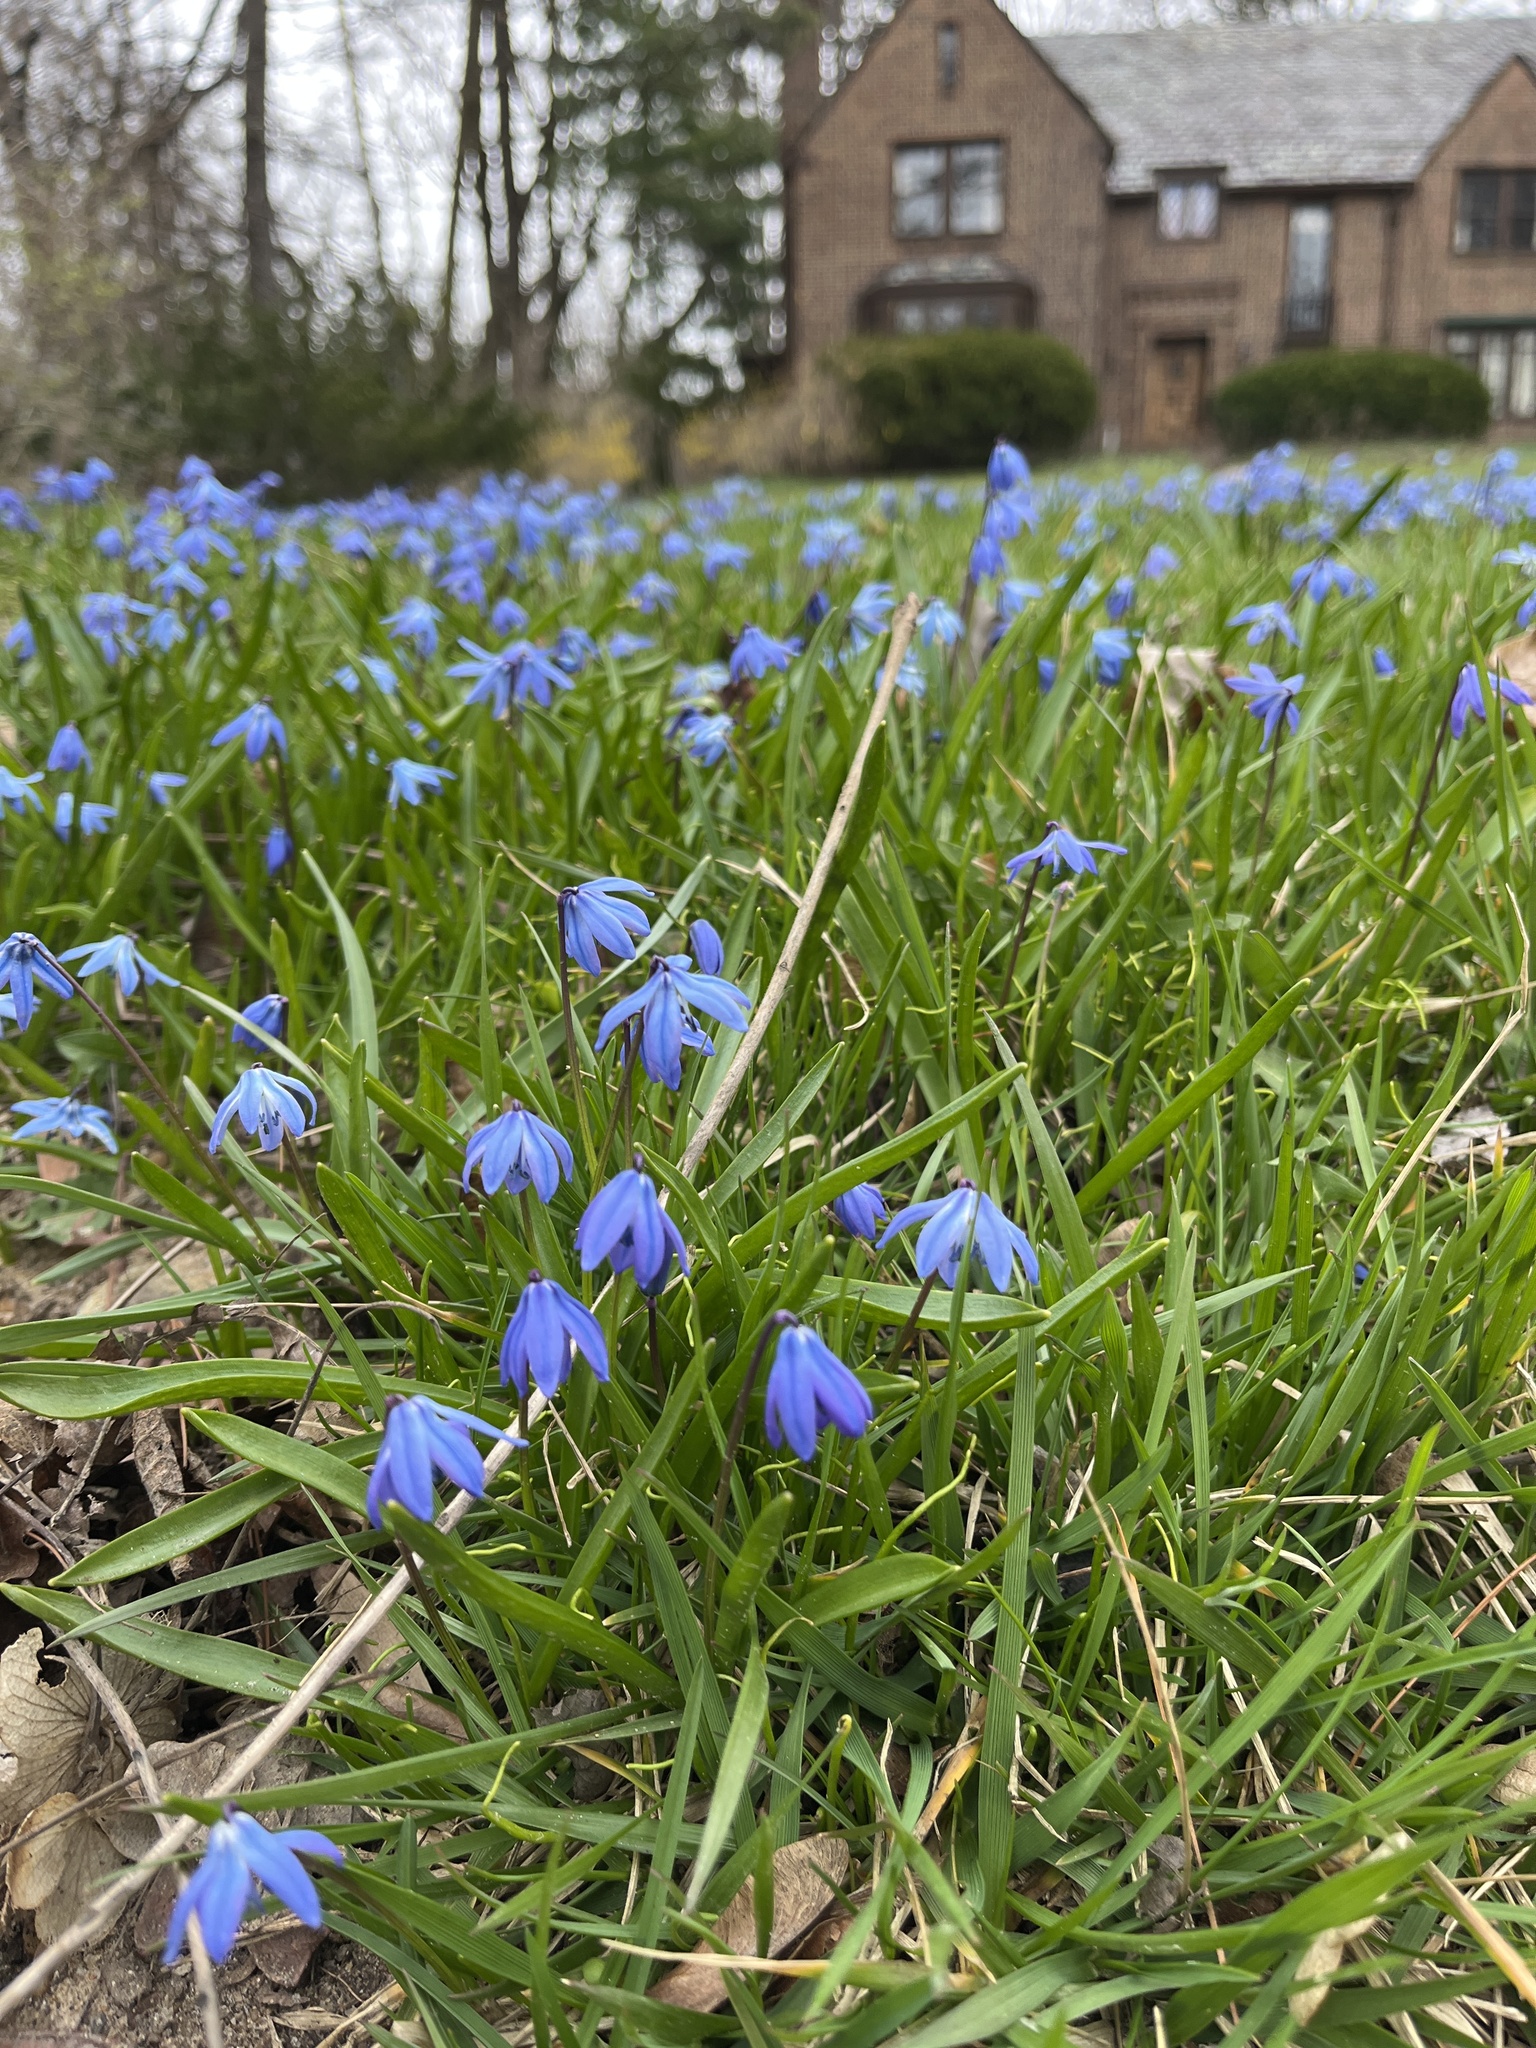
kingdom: Plantae
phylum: Tracheophyta
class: Liliopsida
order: Asparagales
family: Asparagaceae
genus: Scilla
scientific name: Scilla siberica
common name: Siberian squill
